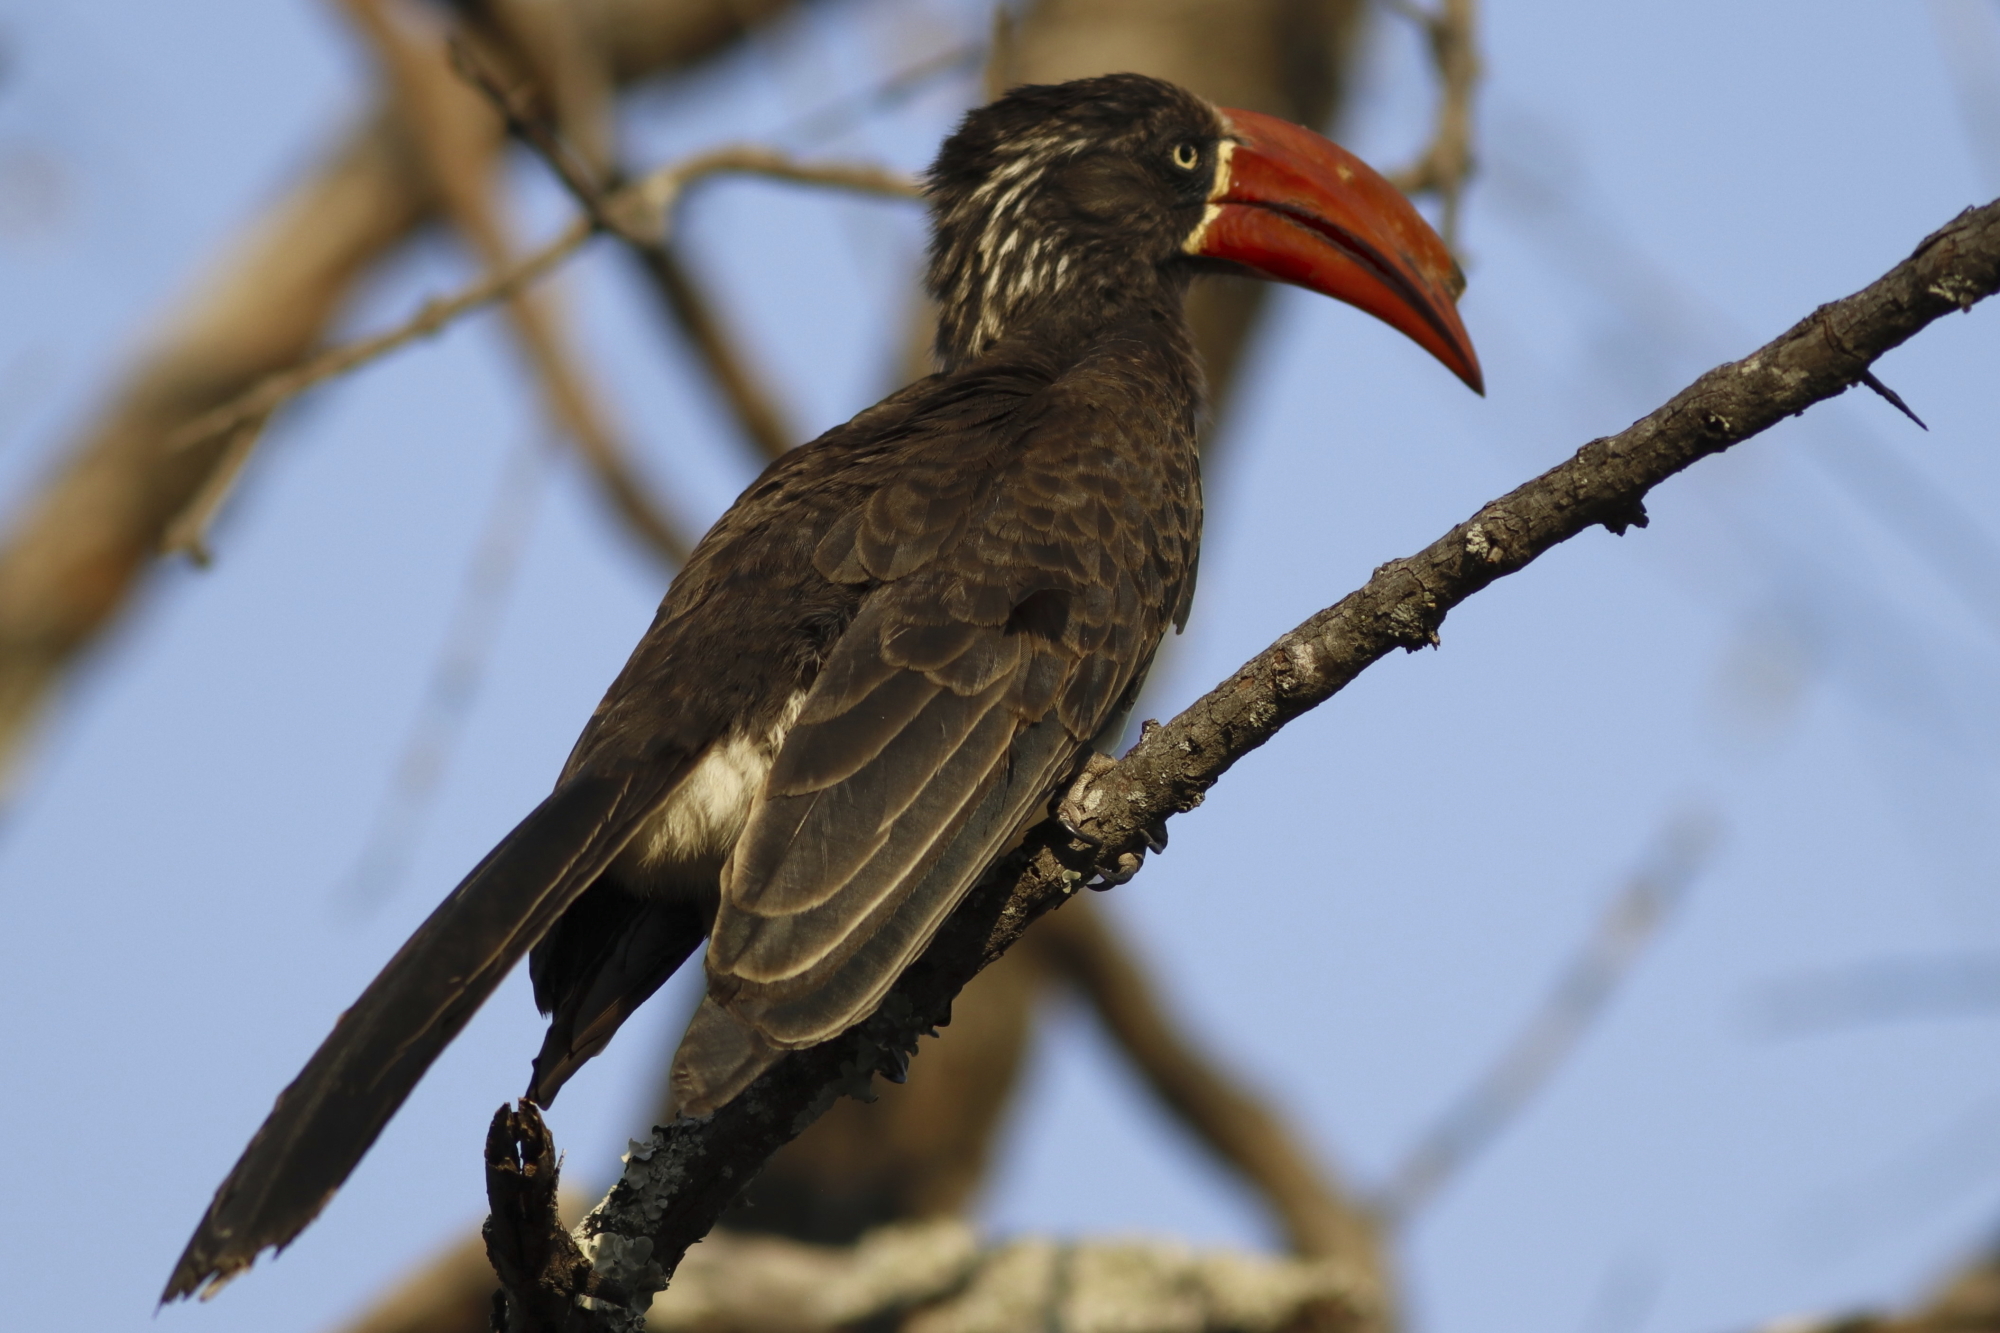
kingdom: Animalia
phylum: Chordata
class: Aves
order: Bucerotiformes
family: Bucerotidae
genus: Lophoceros
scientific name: Lophoceros alboterminatus
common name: Crowned hornbill
